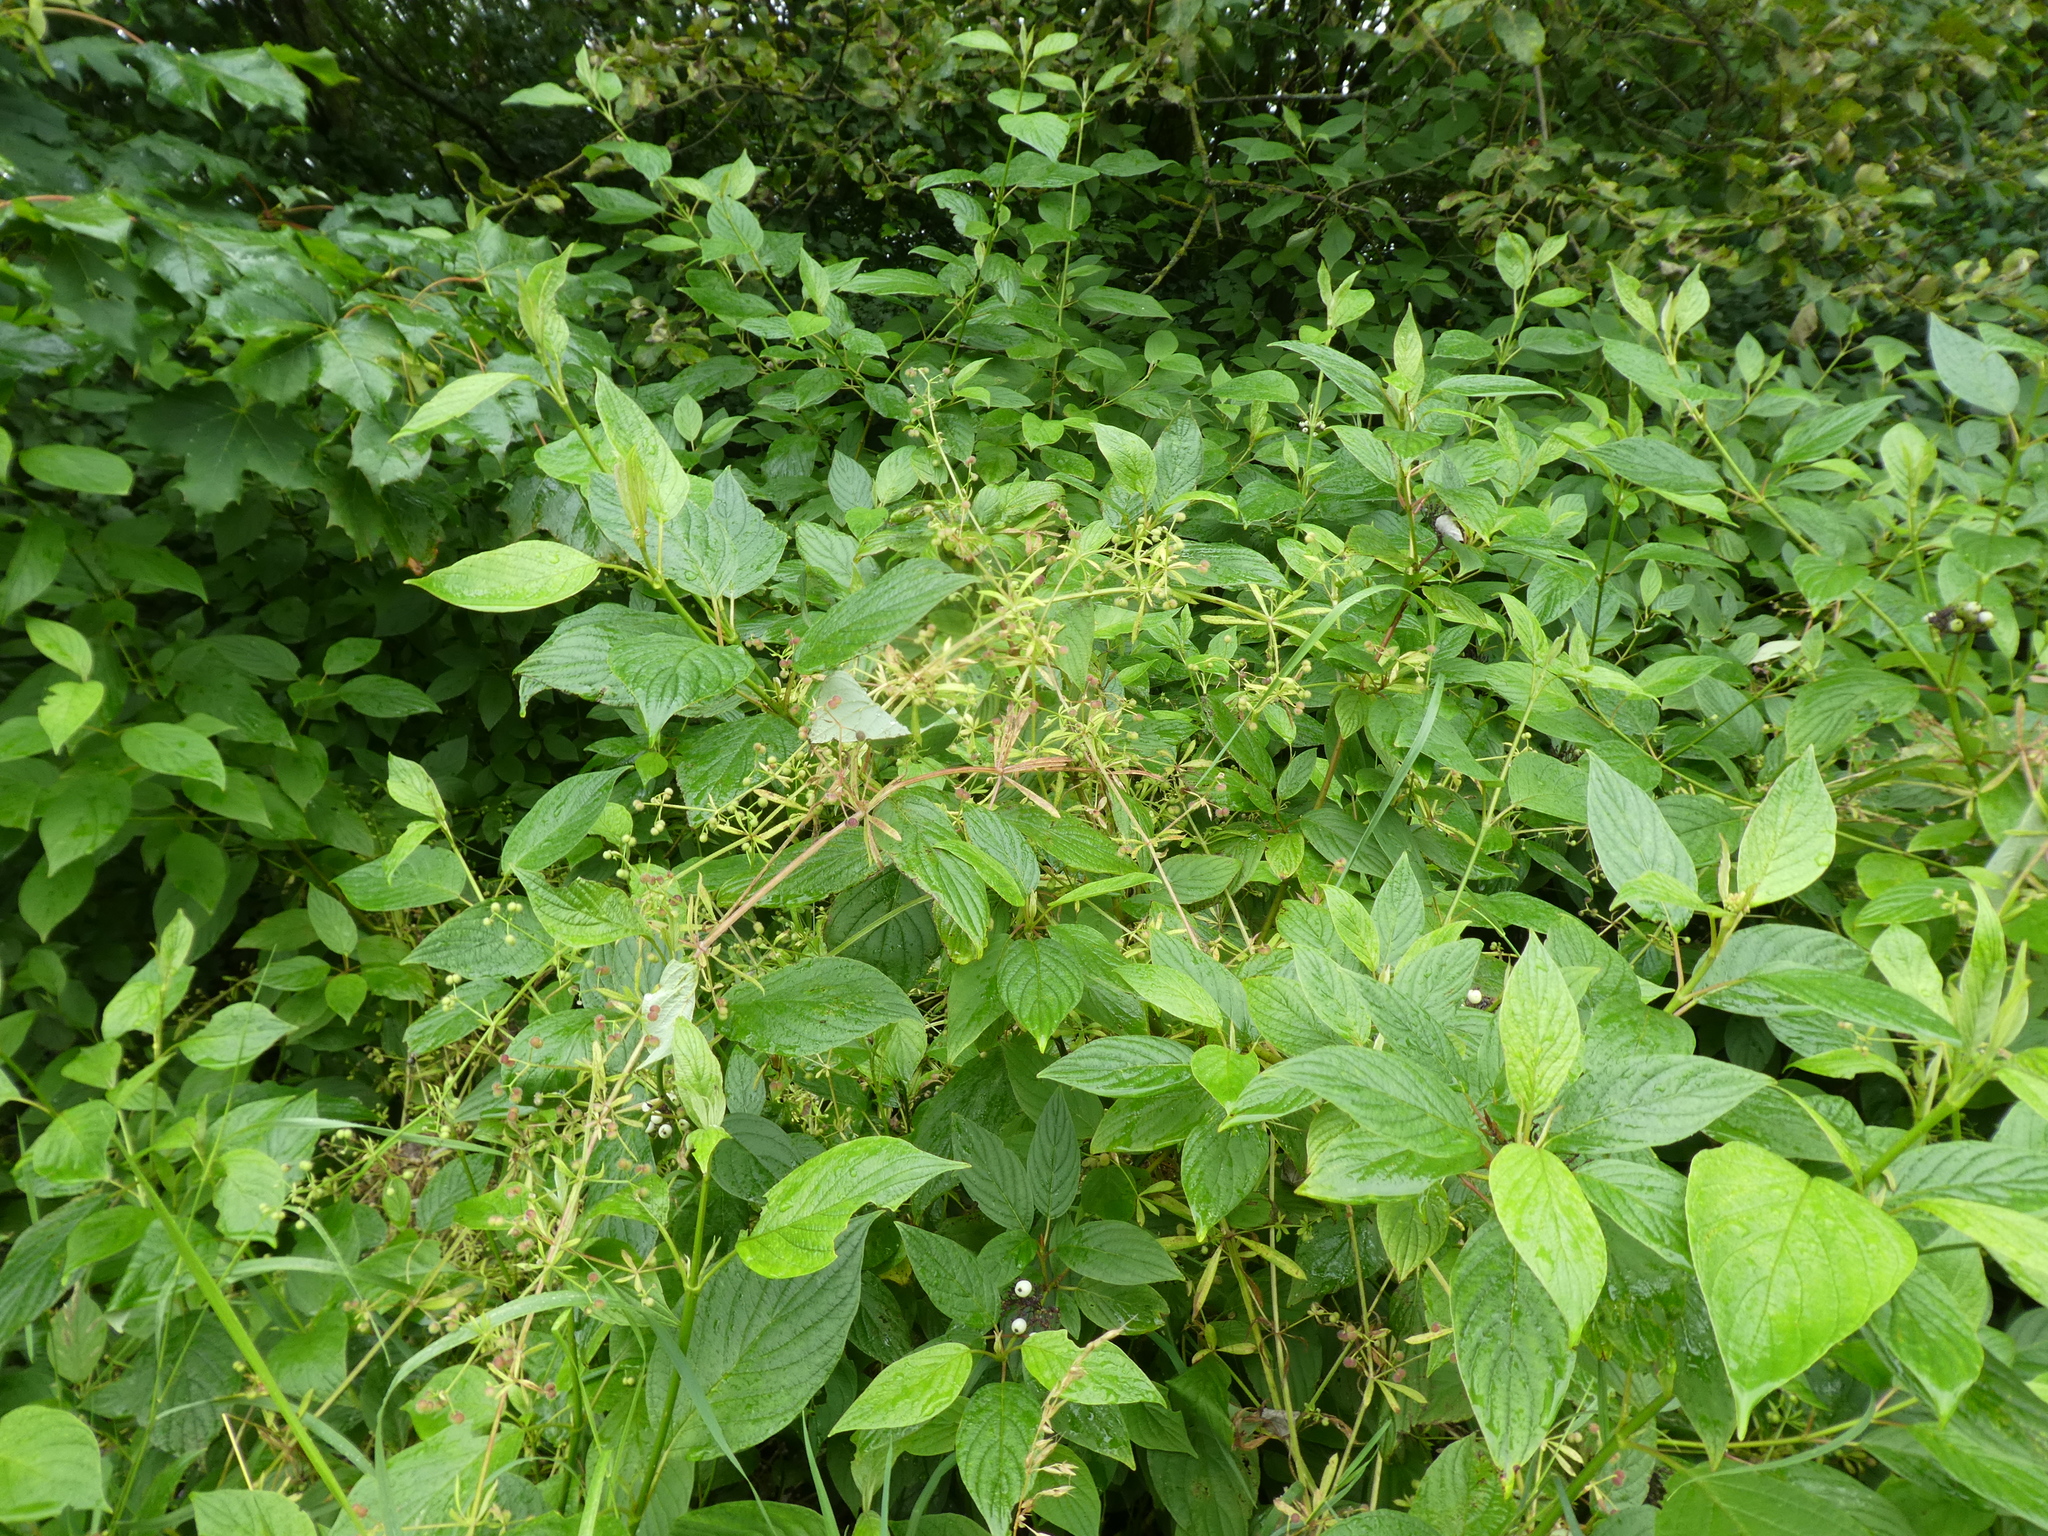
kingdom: Plantae
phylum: Tracheophyta
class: Magnoliopsida
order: Gentianales
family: Rubiaceae
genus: Galium
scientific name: Galium aparine
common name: Cleavers
